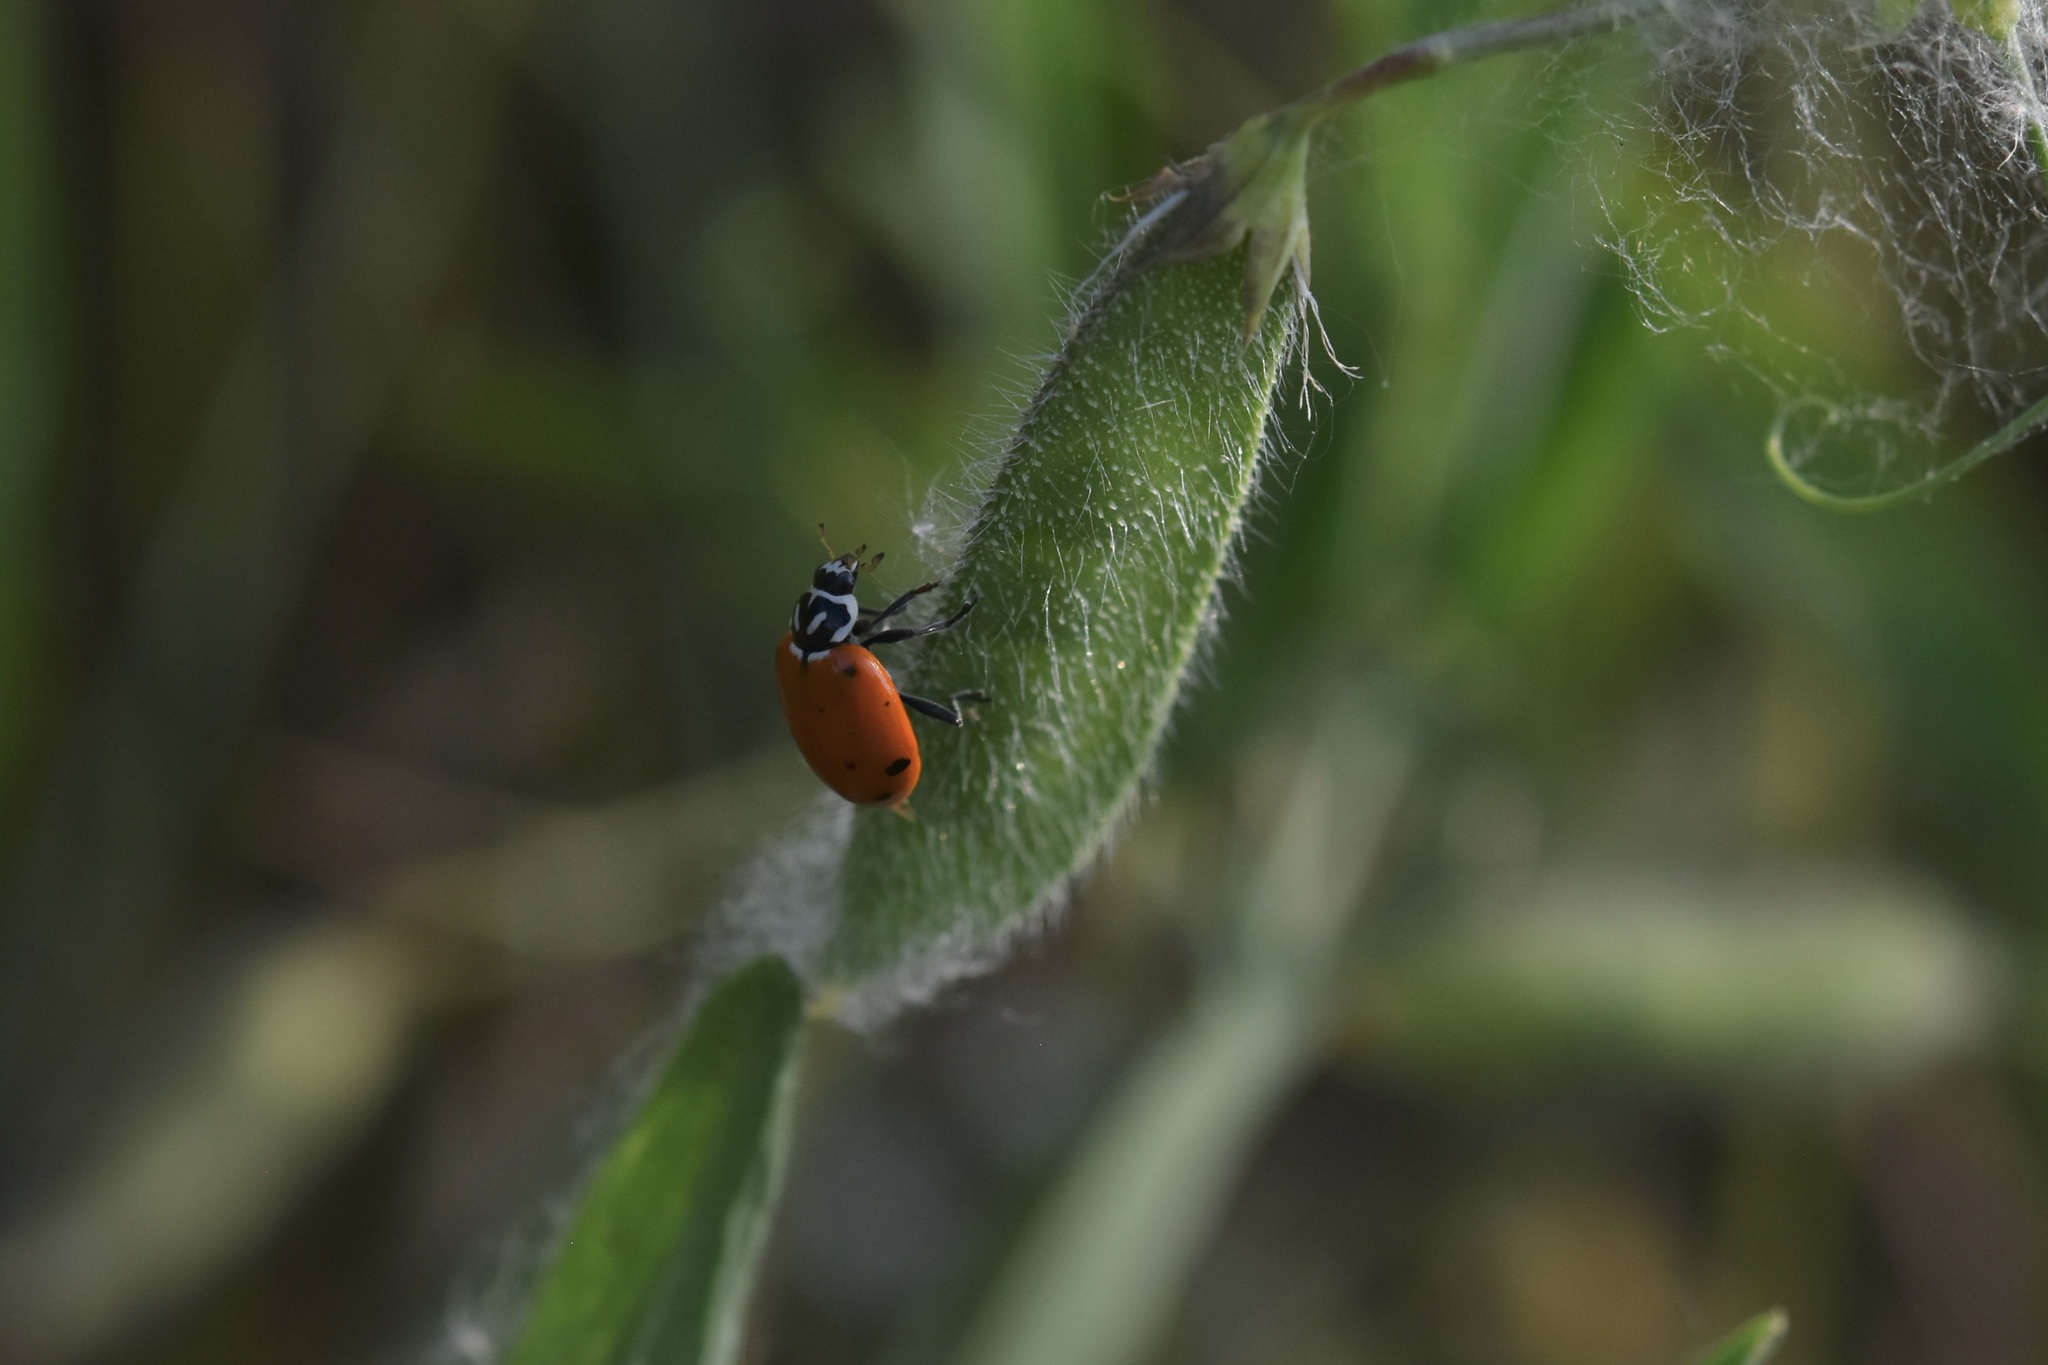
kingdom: Animalia
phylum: Arthropoda
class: Insecta
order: Coleoptera
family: Coccinellidae
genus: Hippodamia
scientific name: Hippodamia convergens
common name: Convergent lady beetle
